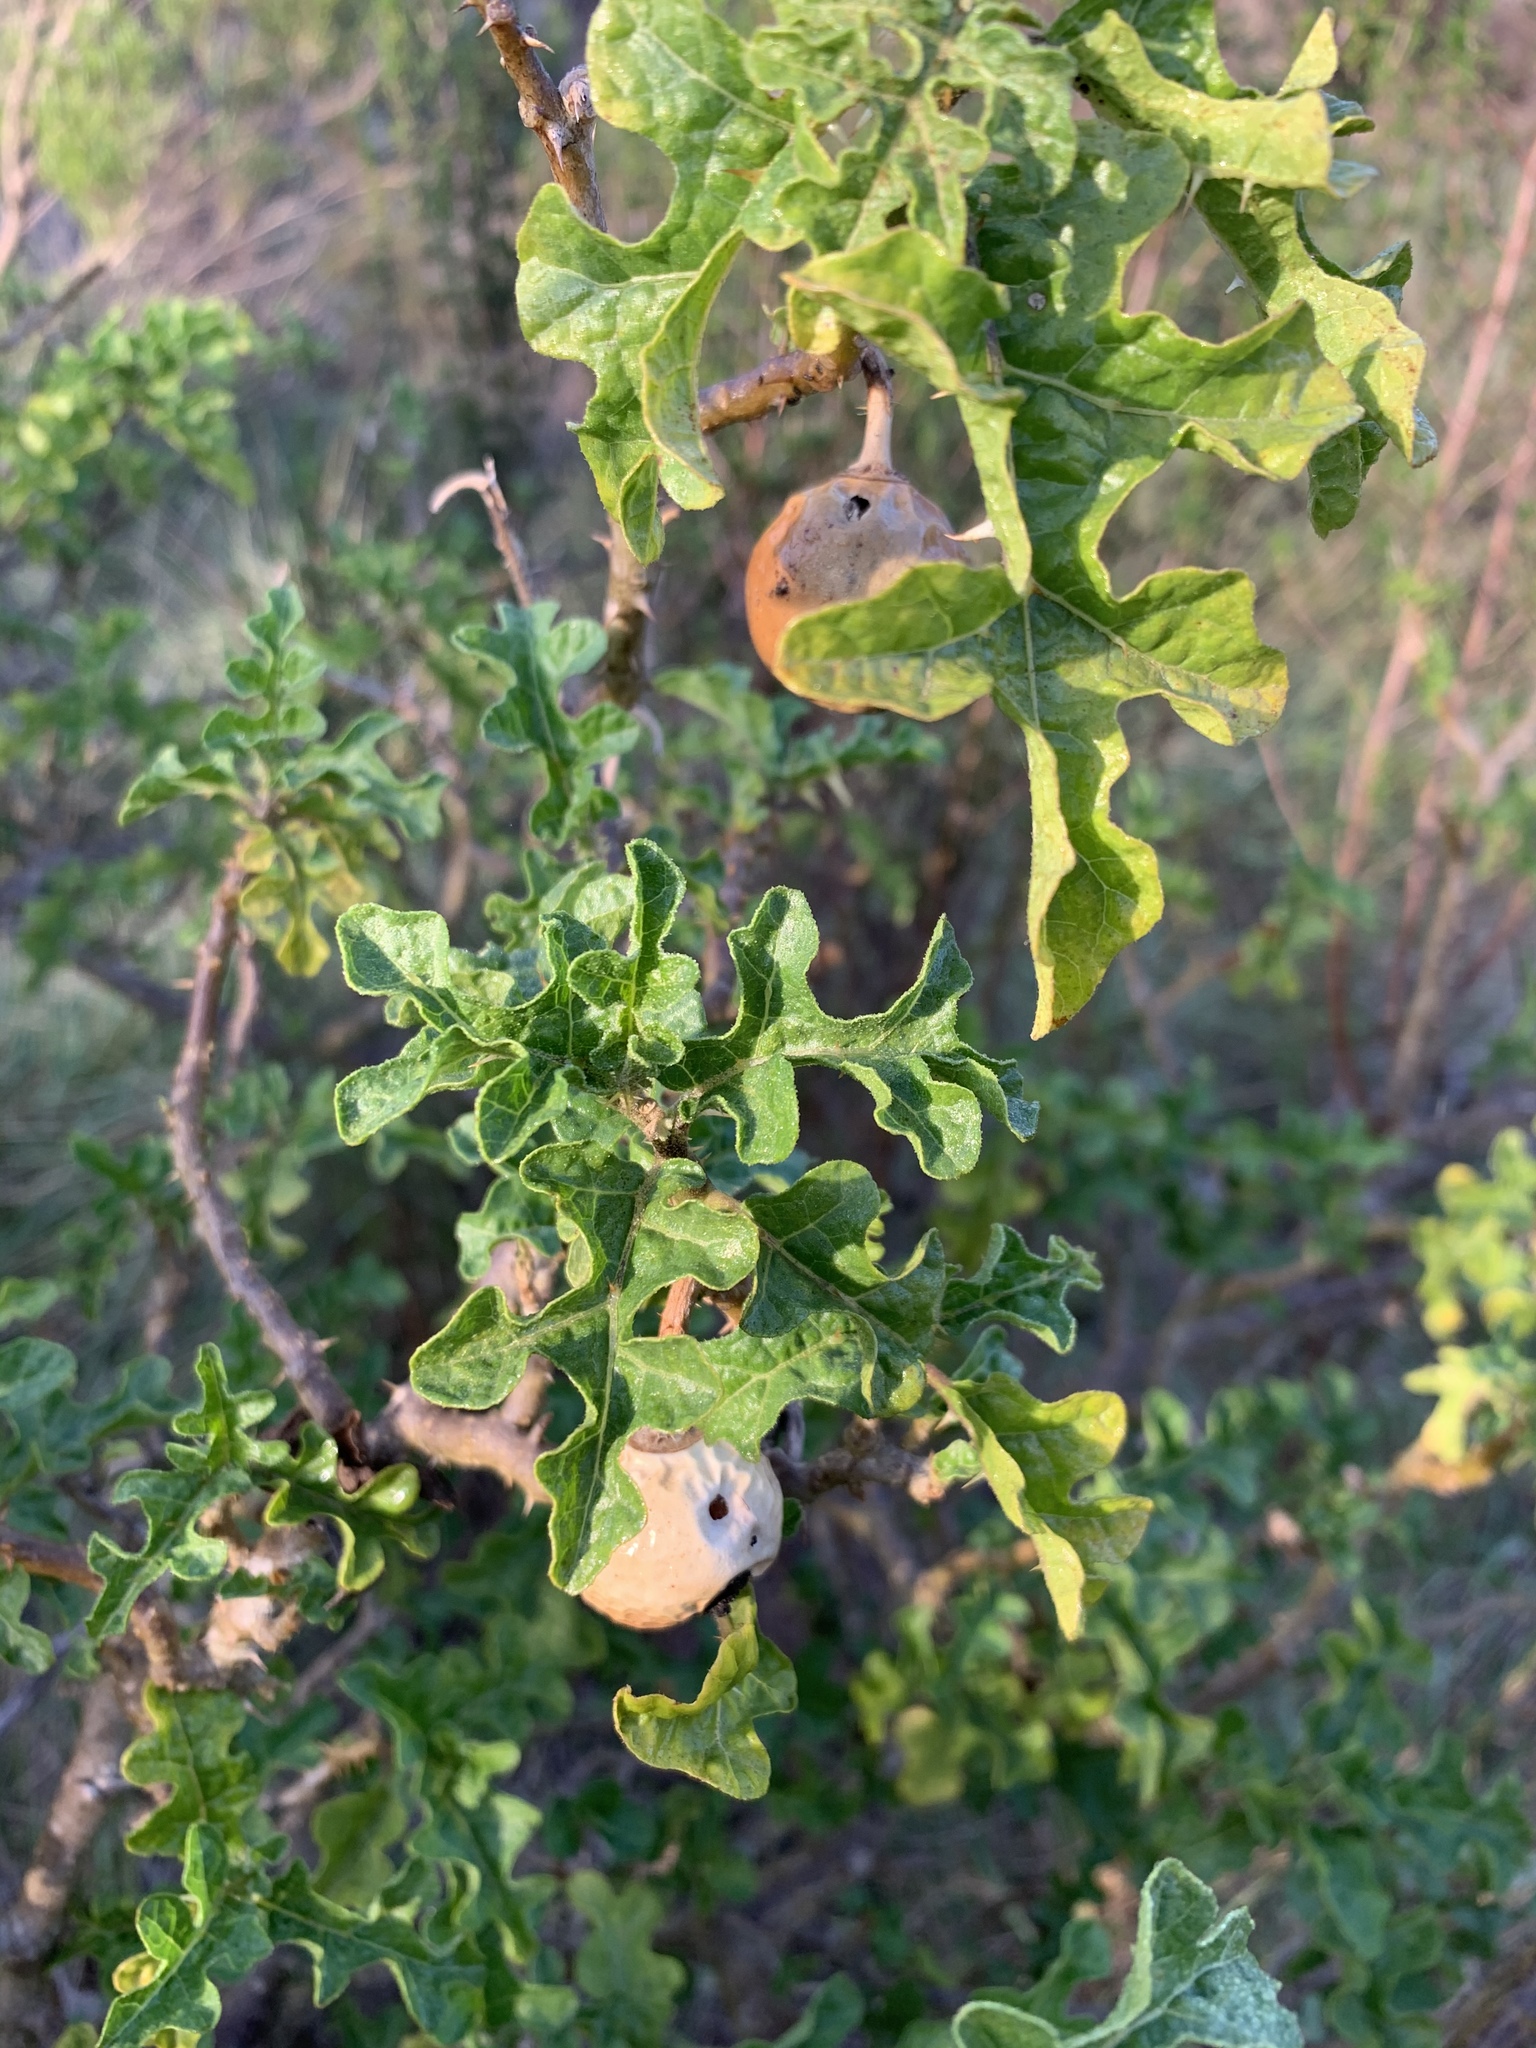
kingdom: Plantae
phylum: Tracheophyta
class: Magnoliopsida
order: Solanales
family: Solanaceae
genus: Solanum
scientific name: Solanum linnaeanum
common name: Nightshade
